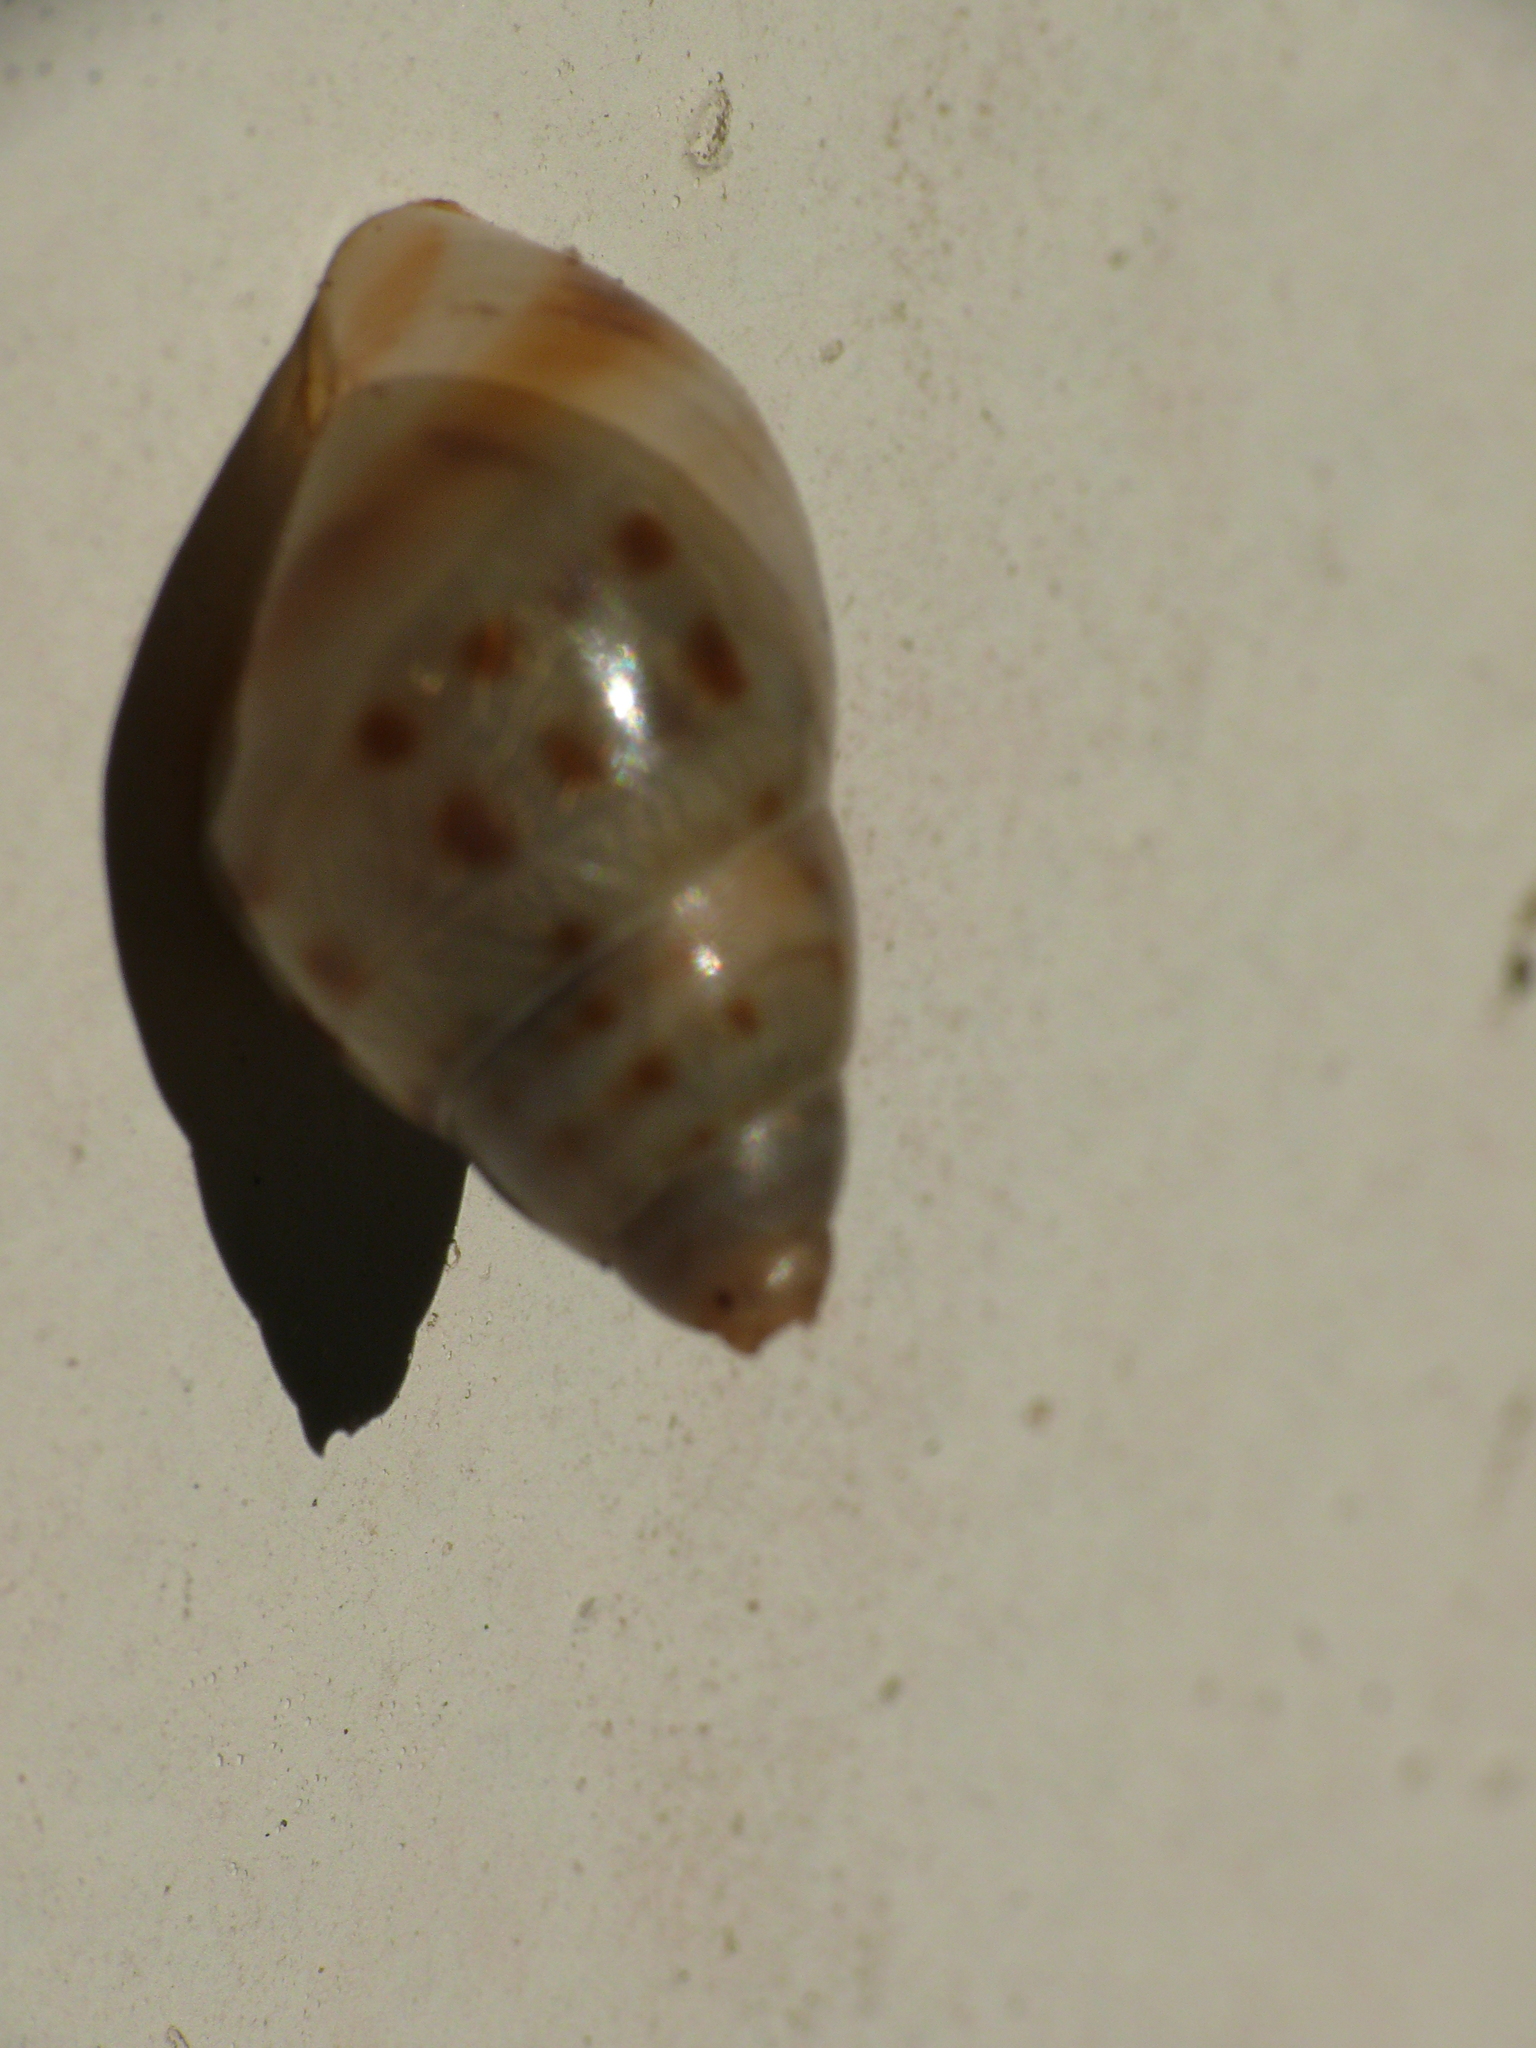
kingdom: Animalia
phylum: Mollusca
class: Gastropoda
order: Stylommatophora
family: Bulimulidae
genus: Drymaeus
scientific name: Drymaeus dormani
